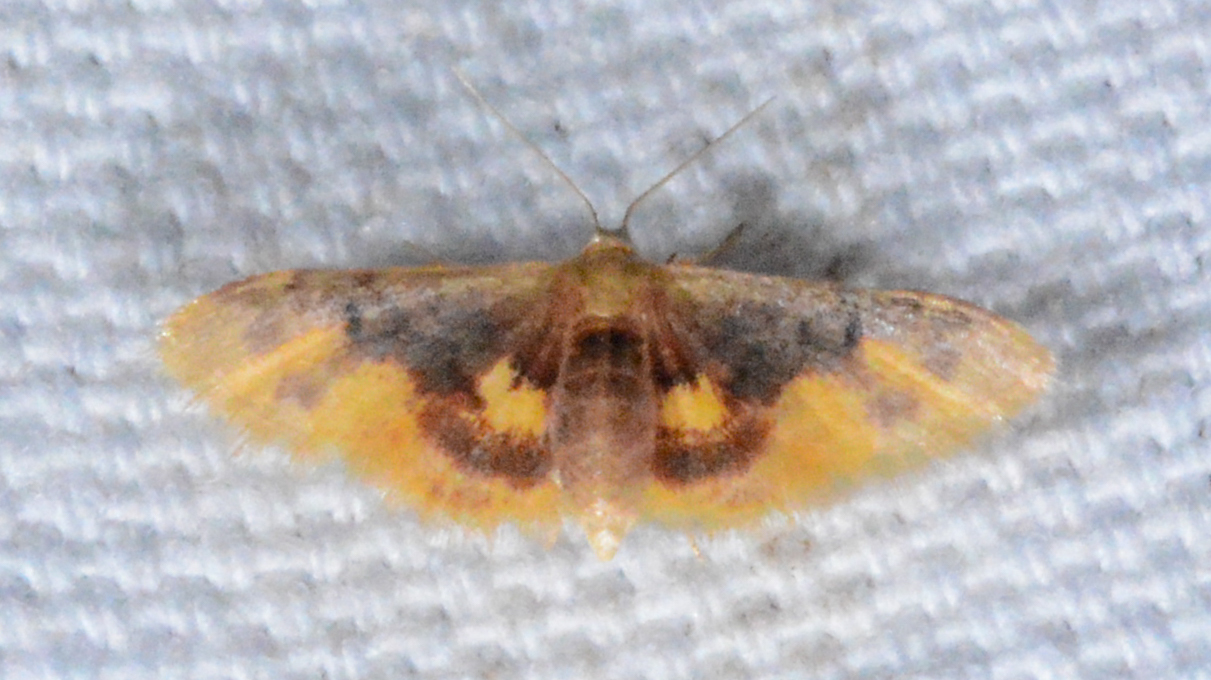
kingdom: Animalia
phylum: Arthropoda
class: Insecta
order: Lepidoptera
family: Geometridae
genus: Idaea
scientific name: Idaea scintillularia
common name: Diminutive wave
